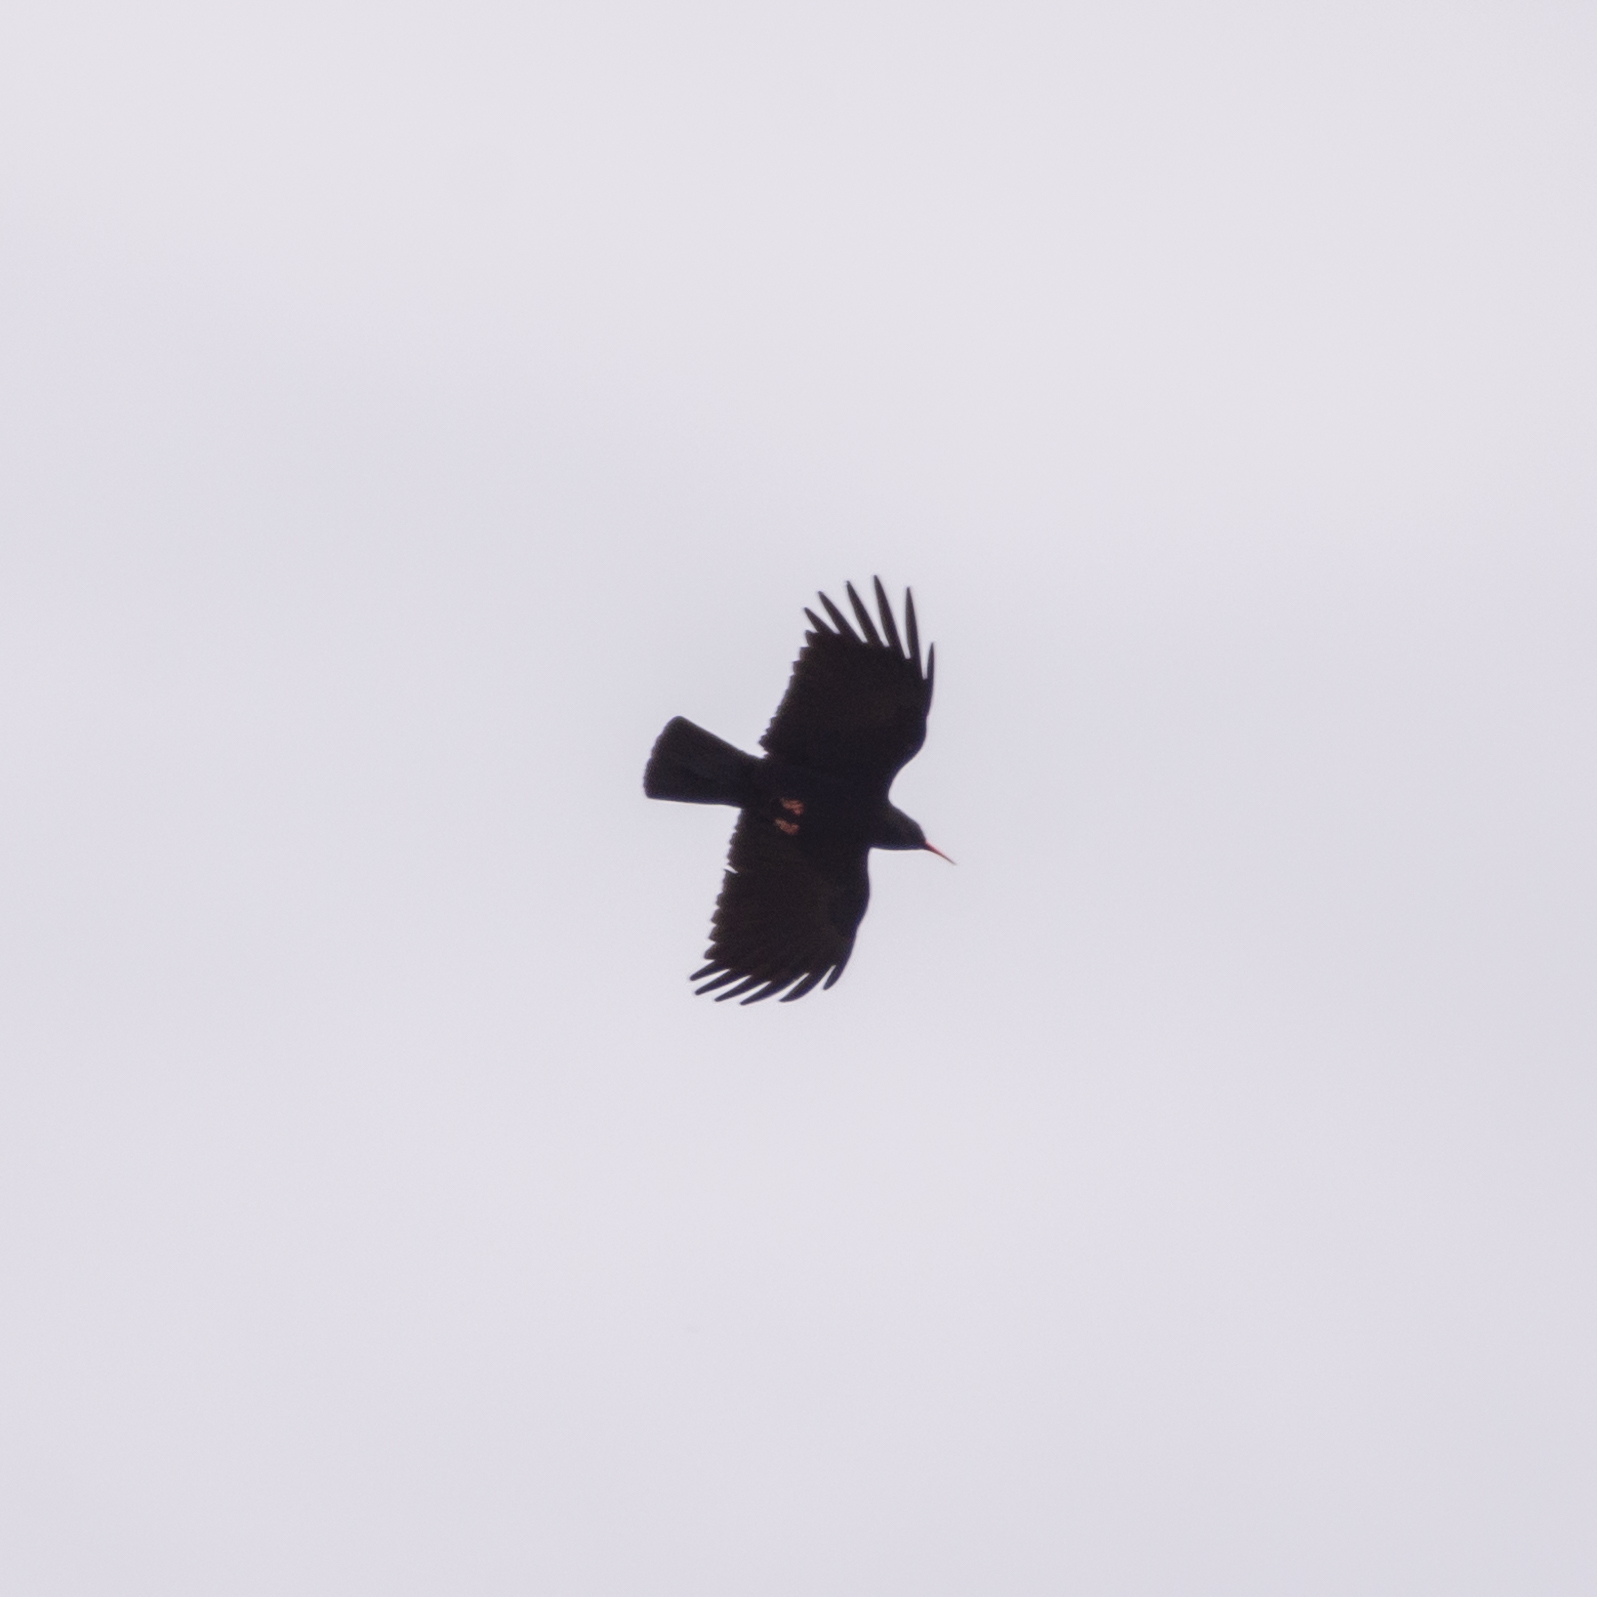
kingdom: Animalia
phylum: Chordata
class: Aves
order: Passeriformes
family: Corvidae
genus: Pyrrhocorax
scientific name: Pyrrhocorax pyrrhocorax
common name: Red-billed chough
